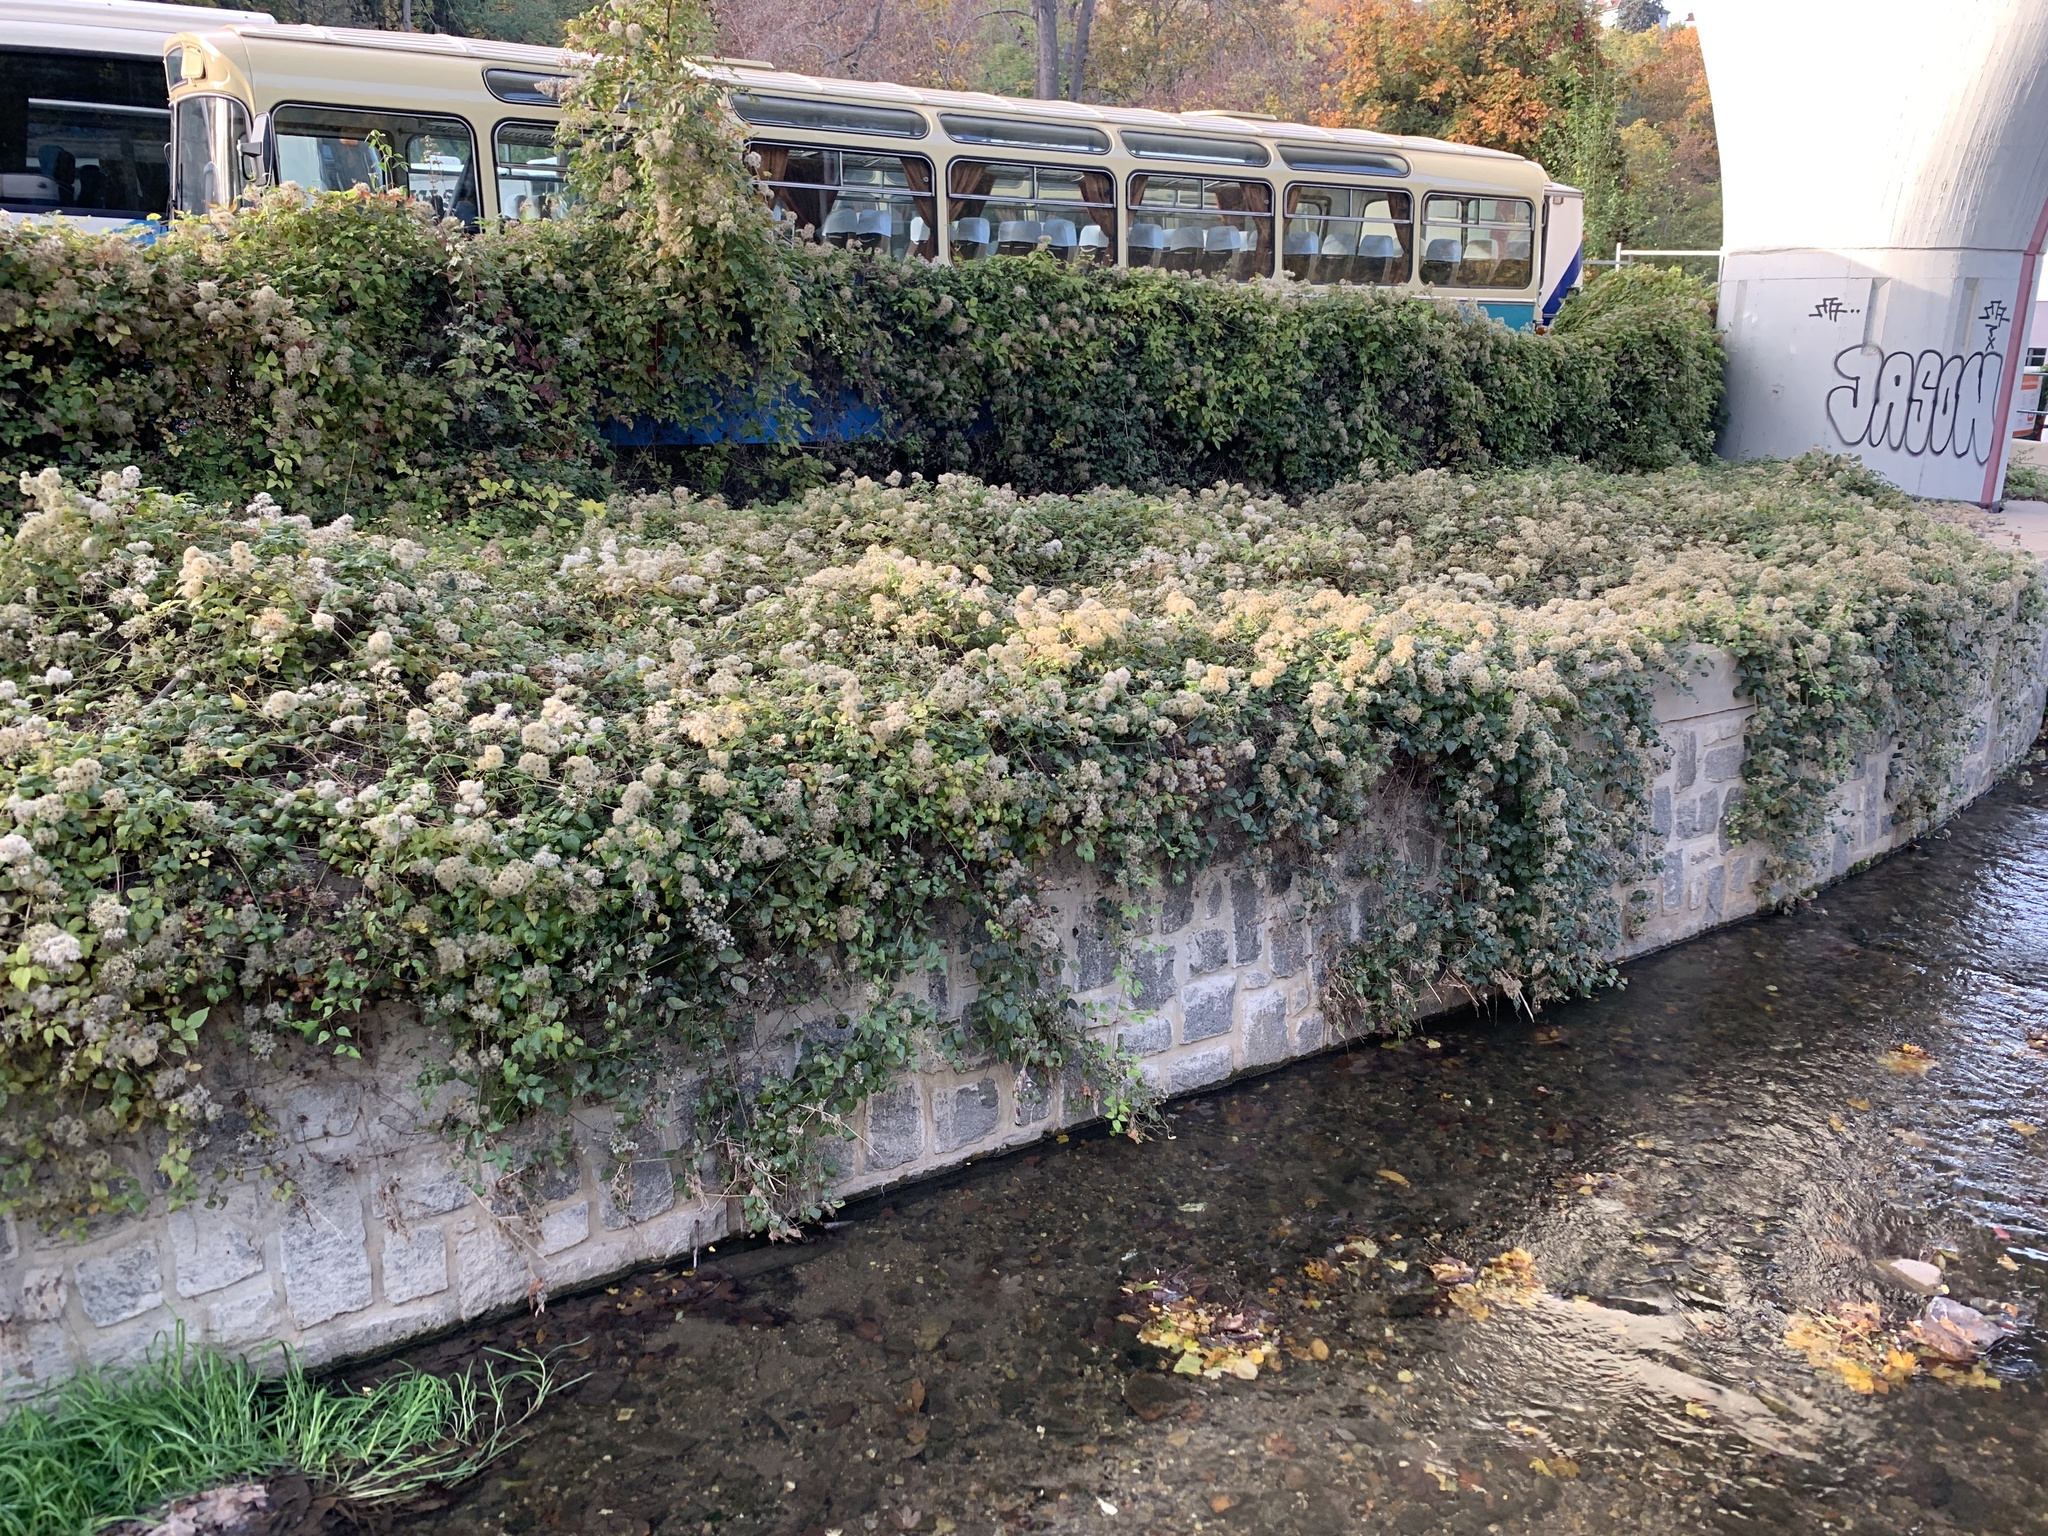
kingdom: Plantae
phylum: Tracheophyta
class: Magnoliopsida
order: Ranunculales
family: Ranunculaceae
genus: Clematis
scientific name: Clematis vitalba
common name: Evergreen clematis
